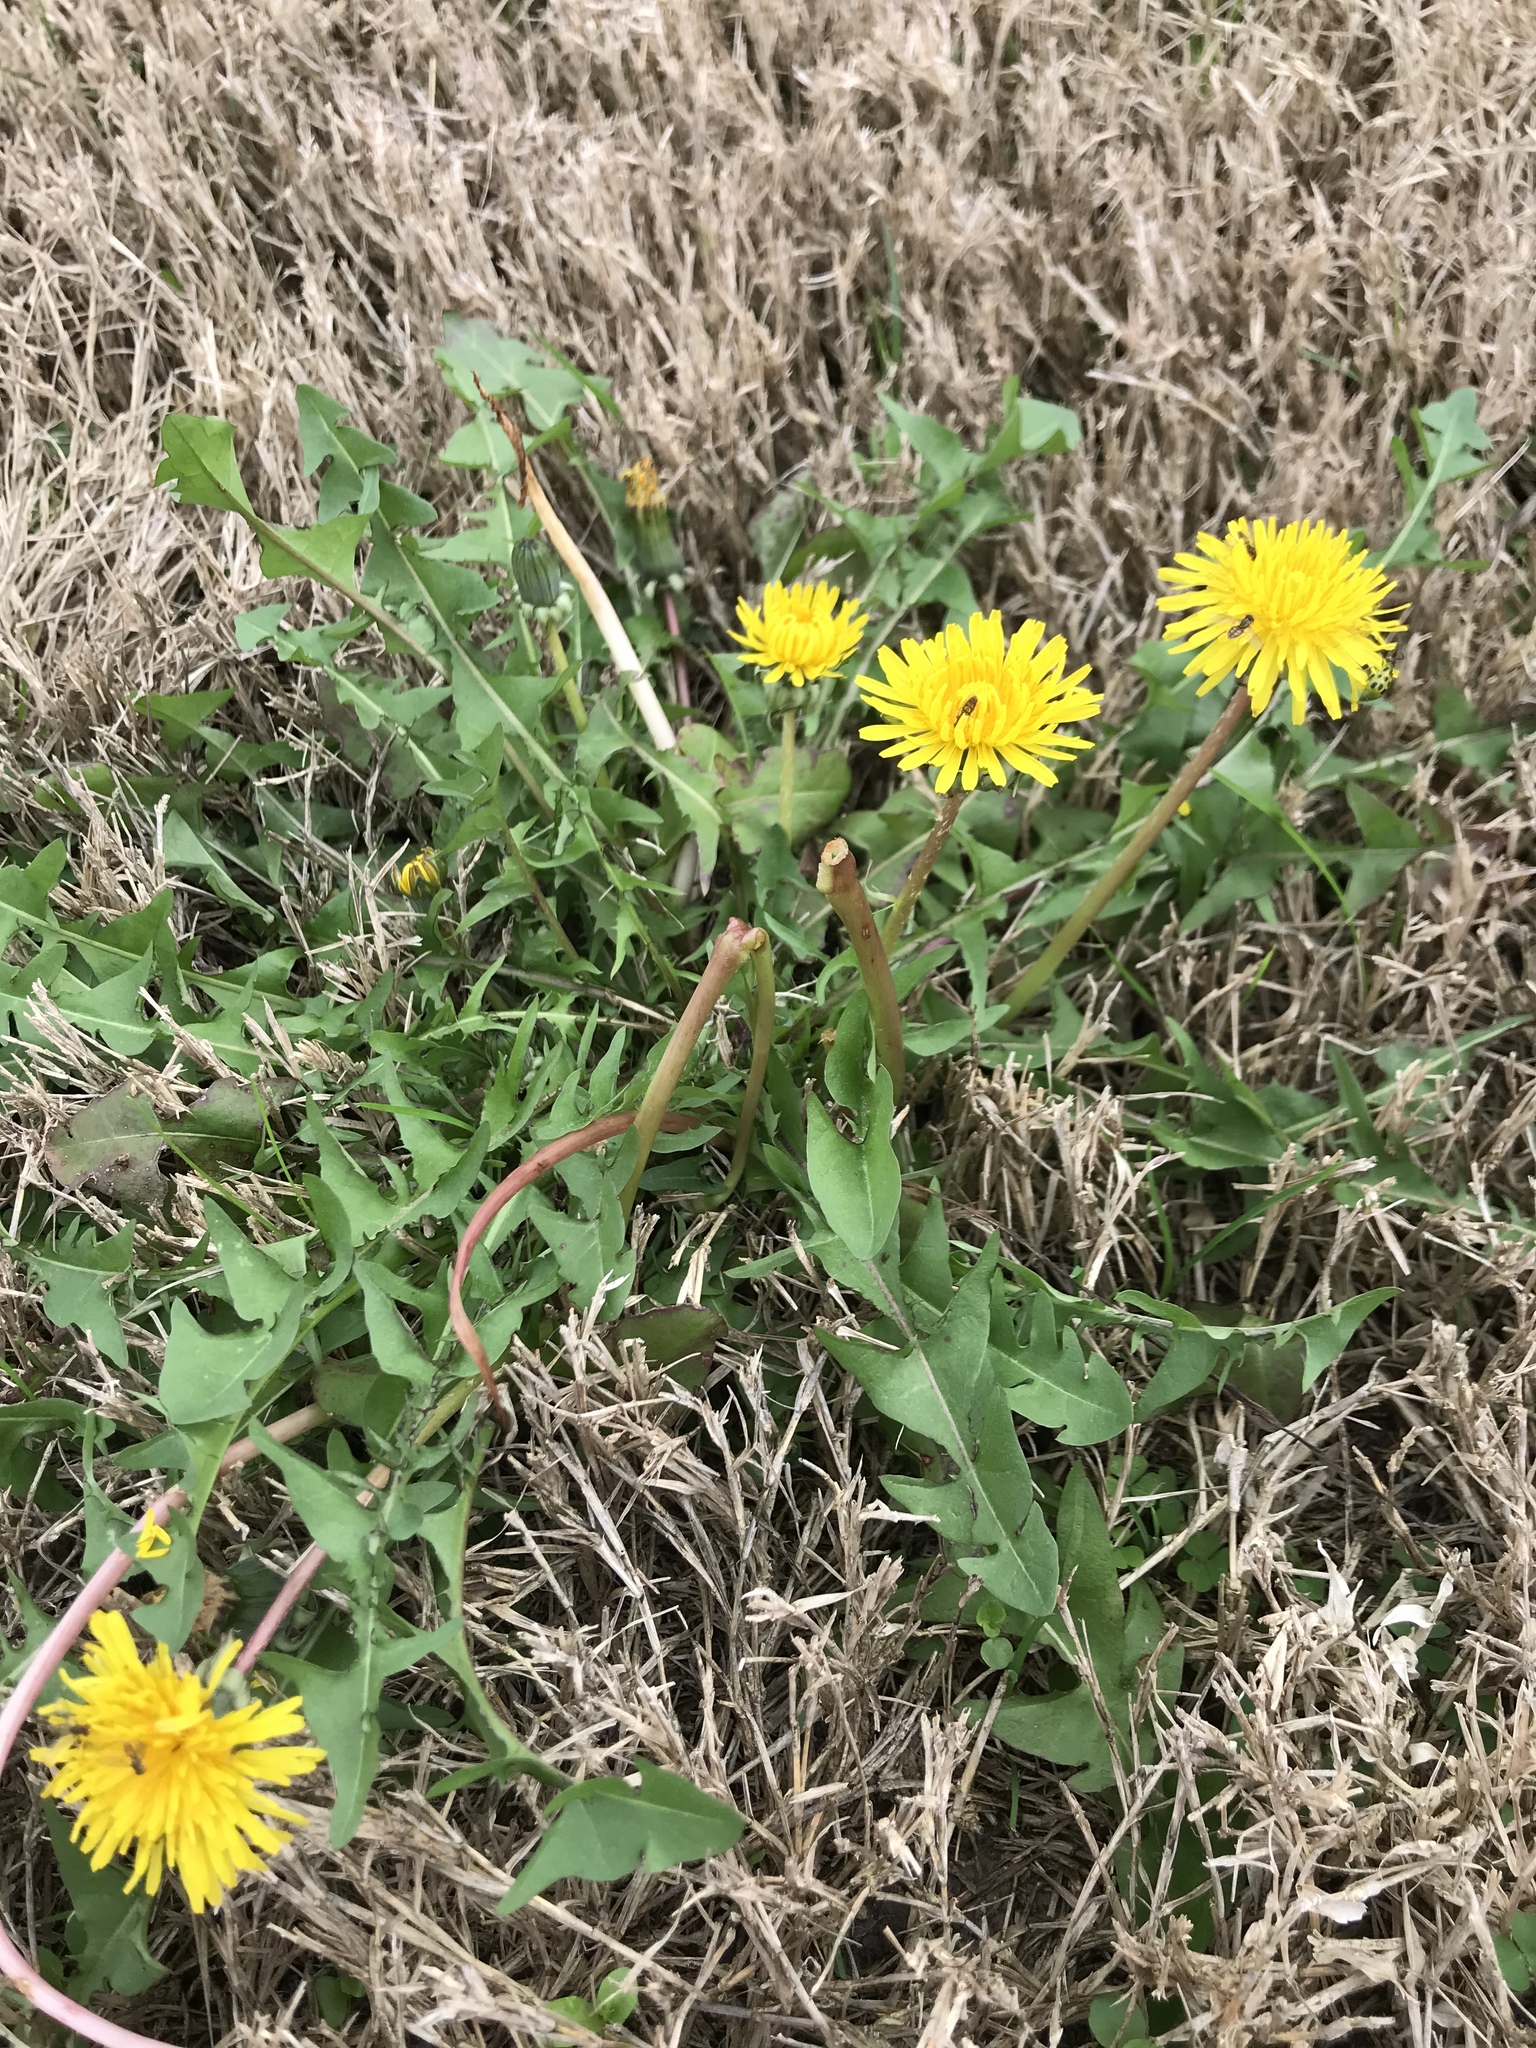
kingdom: Plantae
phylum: Tracheophyta
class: Magnoliopsida
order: Asterales
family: Asteraceae
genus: Taraxacum
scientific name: Taraxacum officinale
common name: Common dandelion
